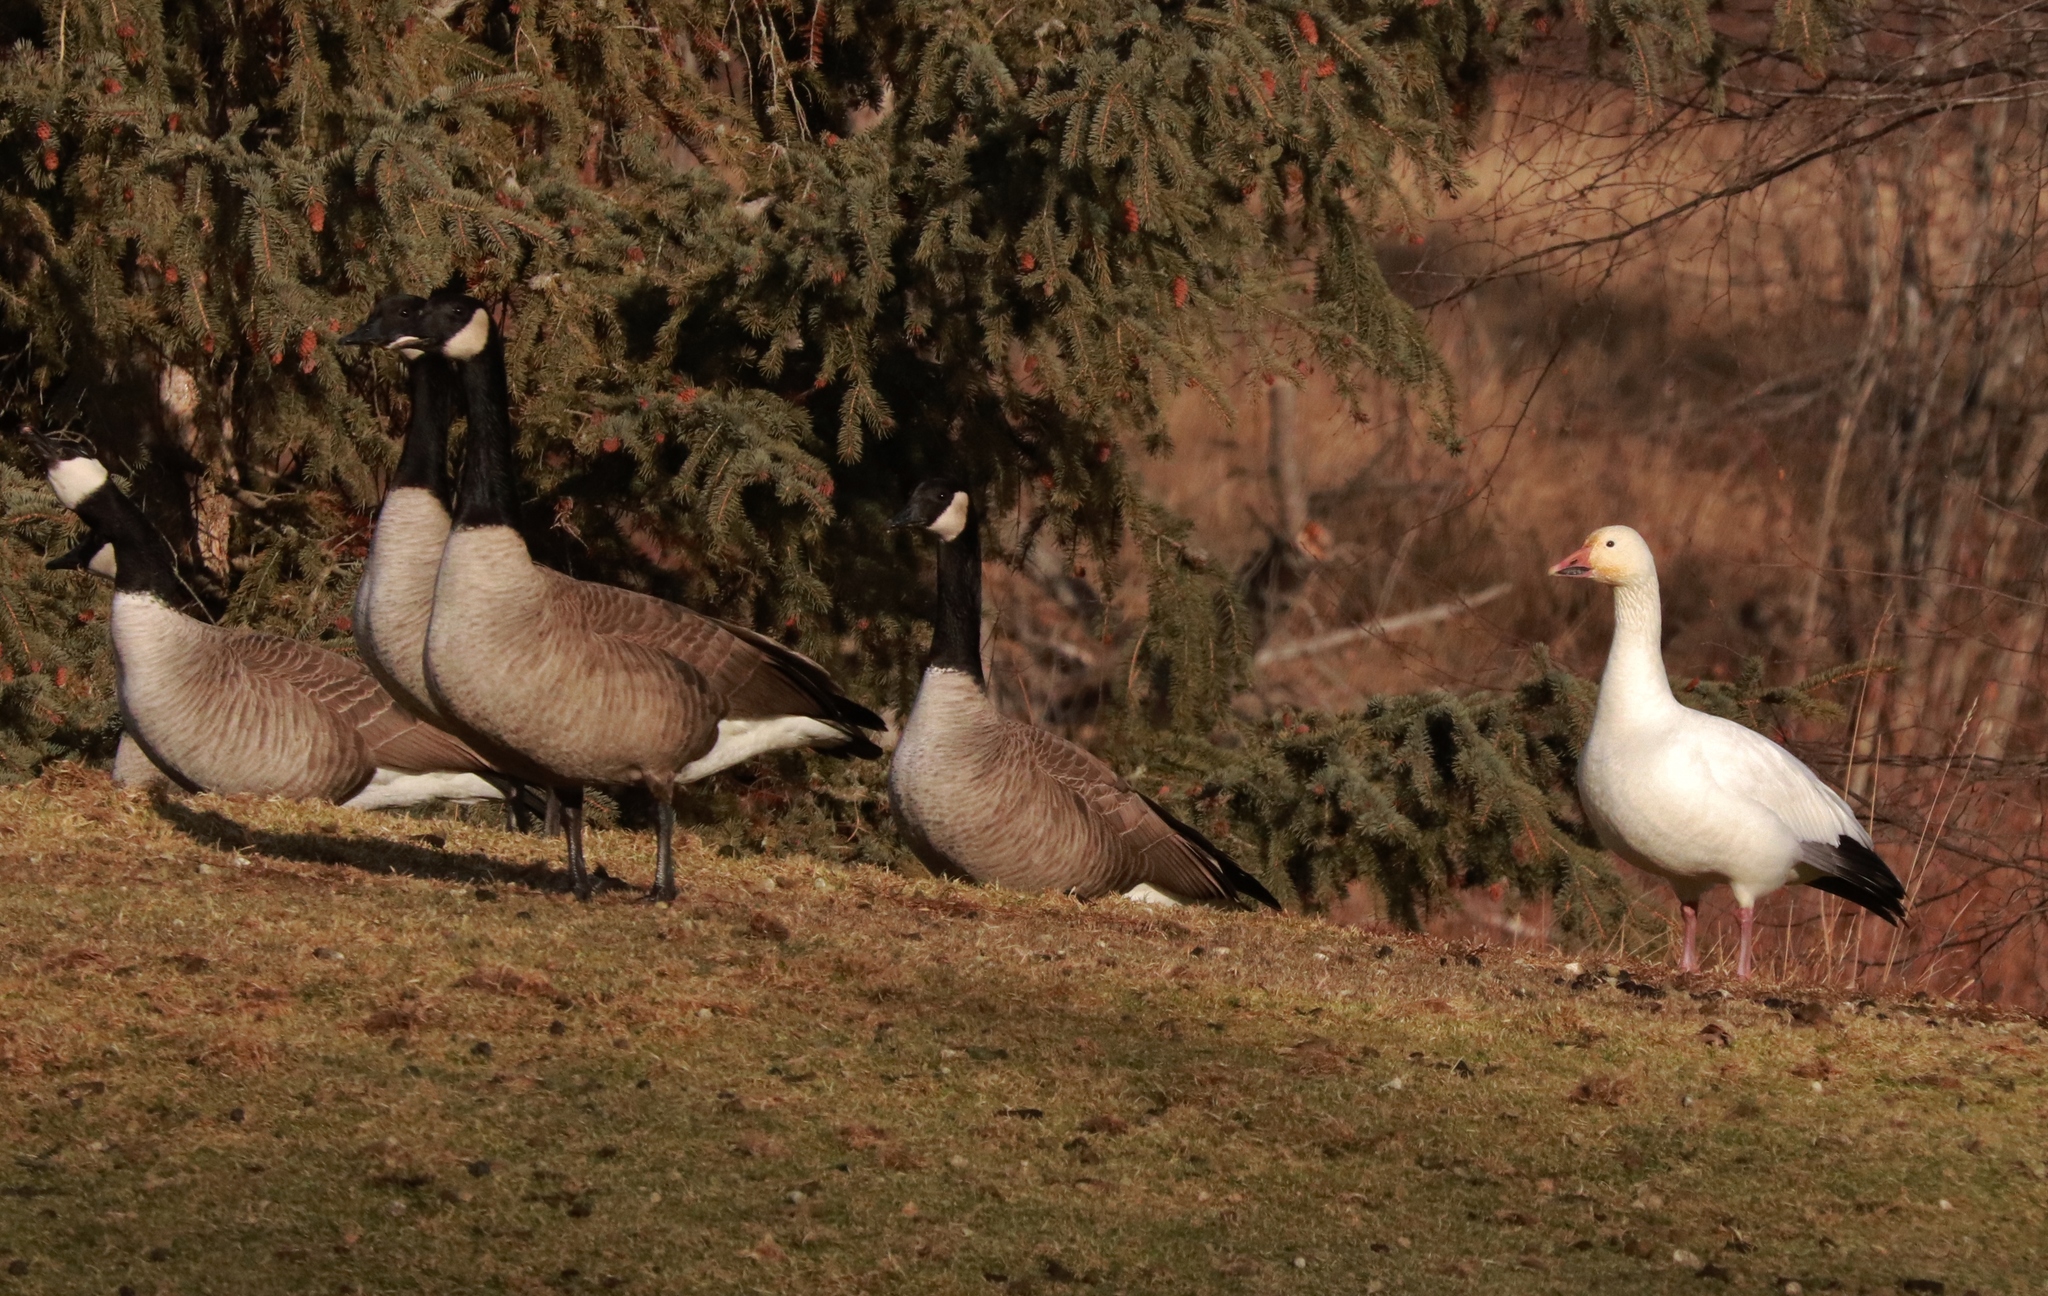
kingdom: Animalia
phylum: Chordata
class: Aves
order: Anseriformes
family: Anatidae
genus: Anser
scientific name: Anser caerulescens
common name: Snow goose
